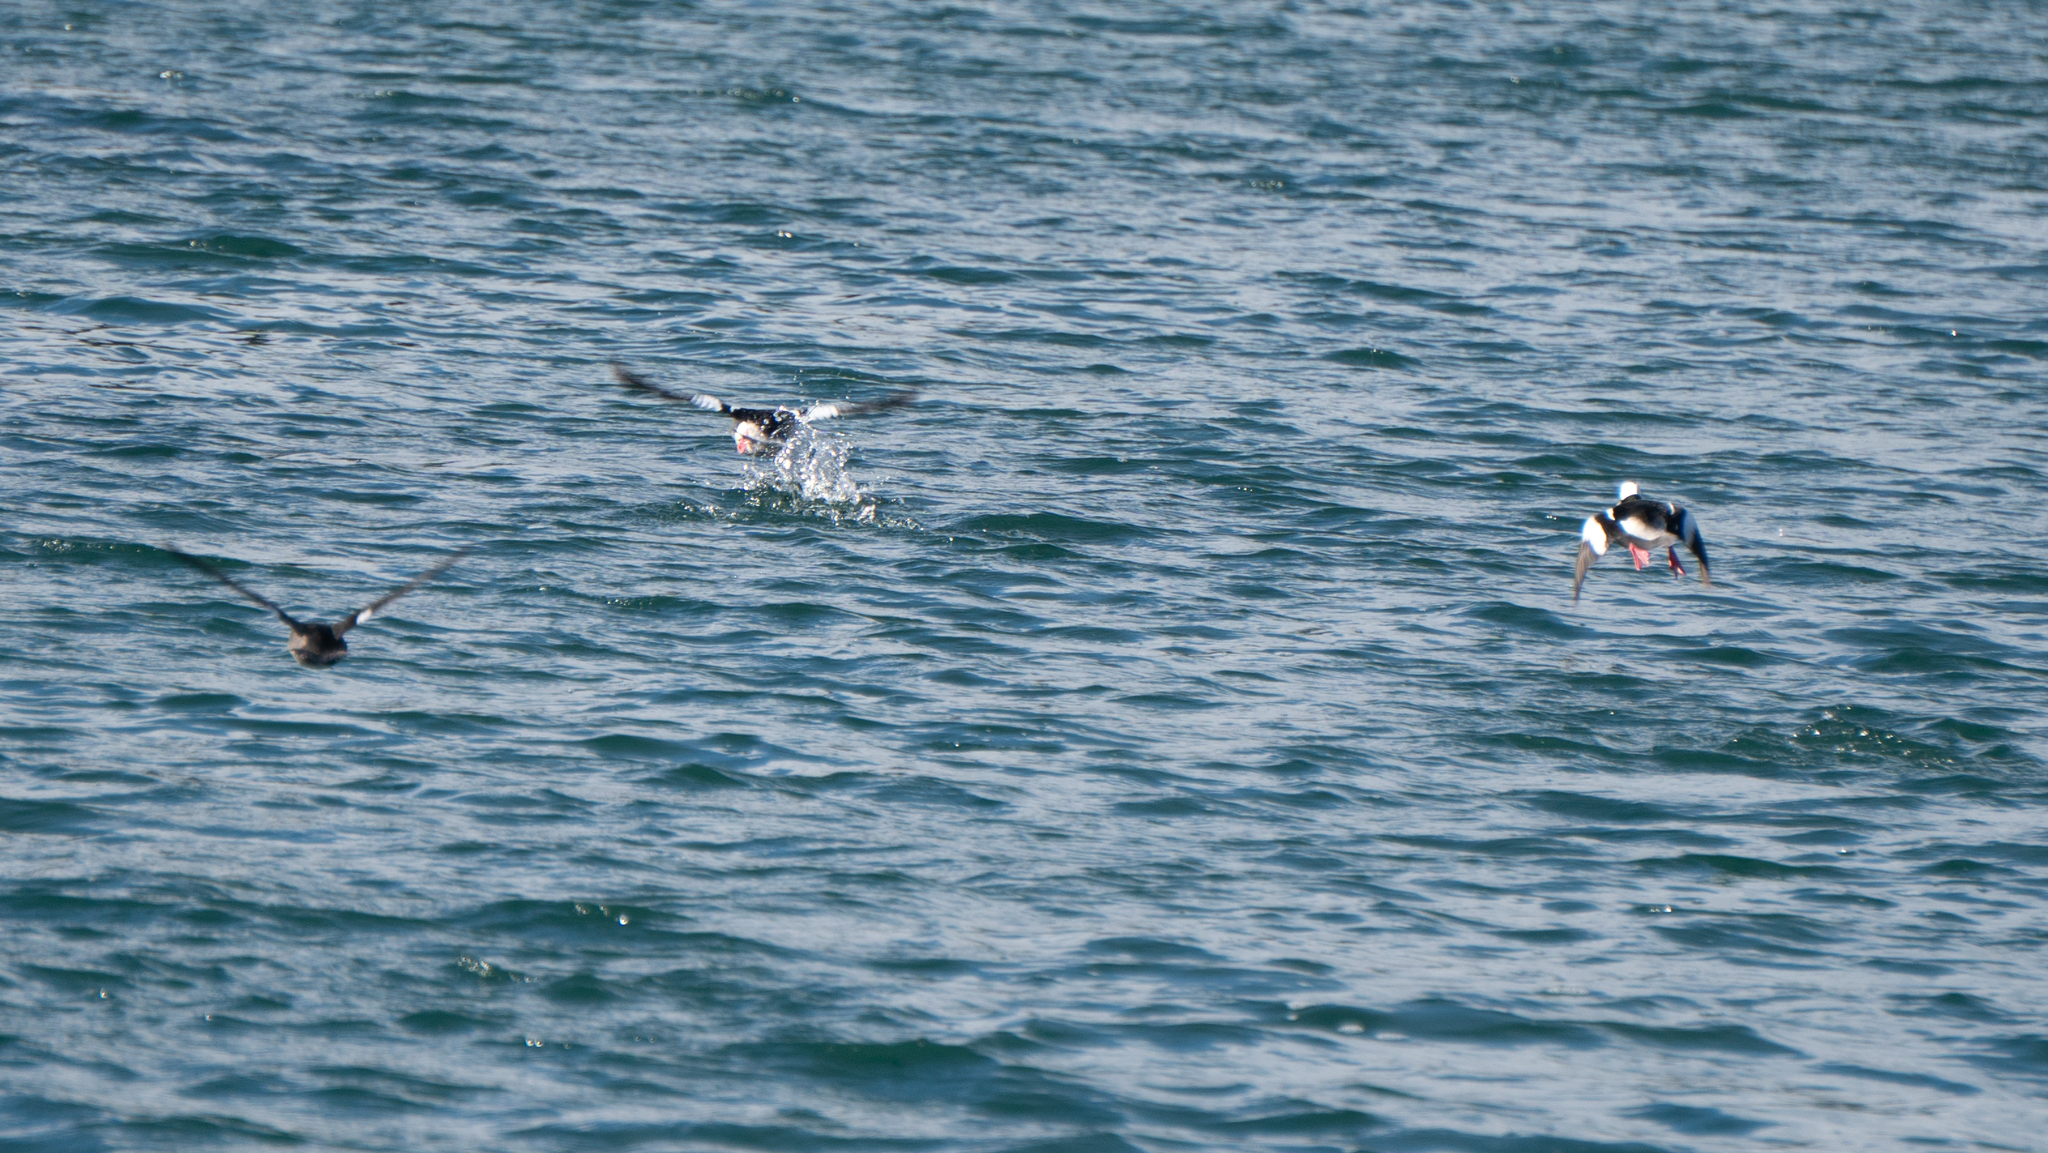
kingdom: Animalia
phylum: Chordata
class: Aves
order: Anseriformes
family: Anatidae
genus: Bucephala
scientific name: Bucephala albeola
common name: Bufflehead
